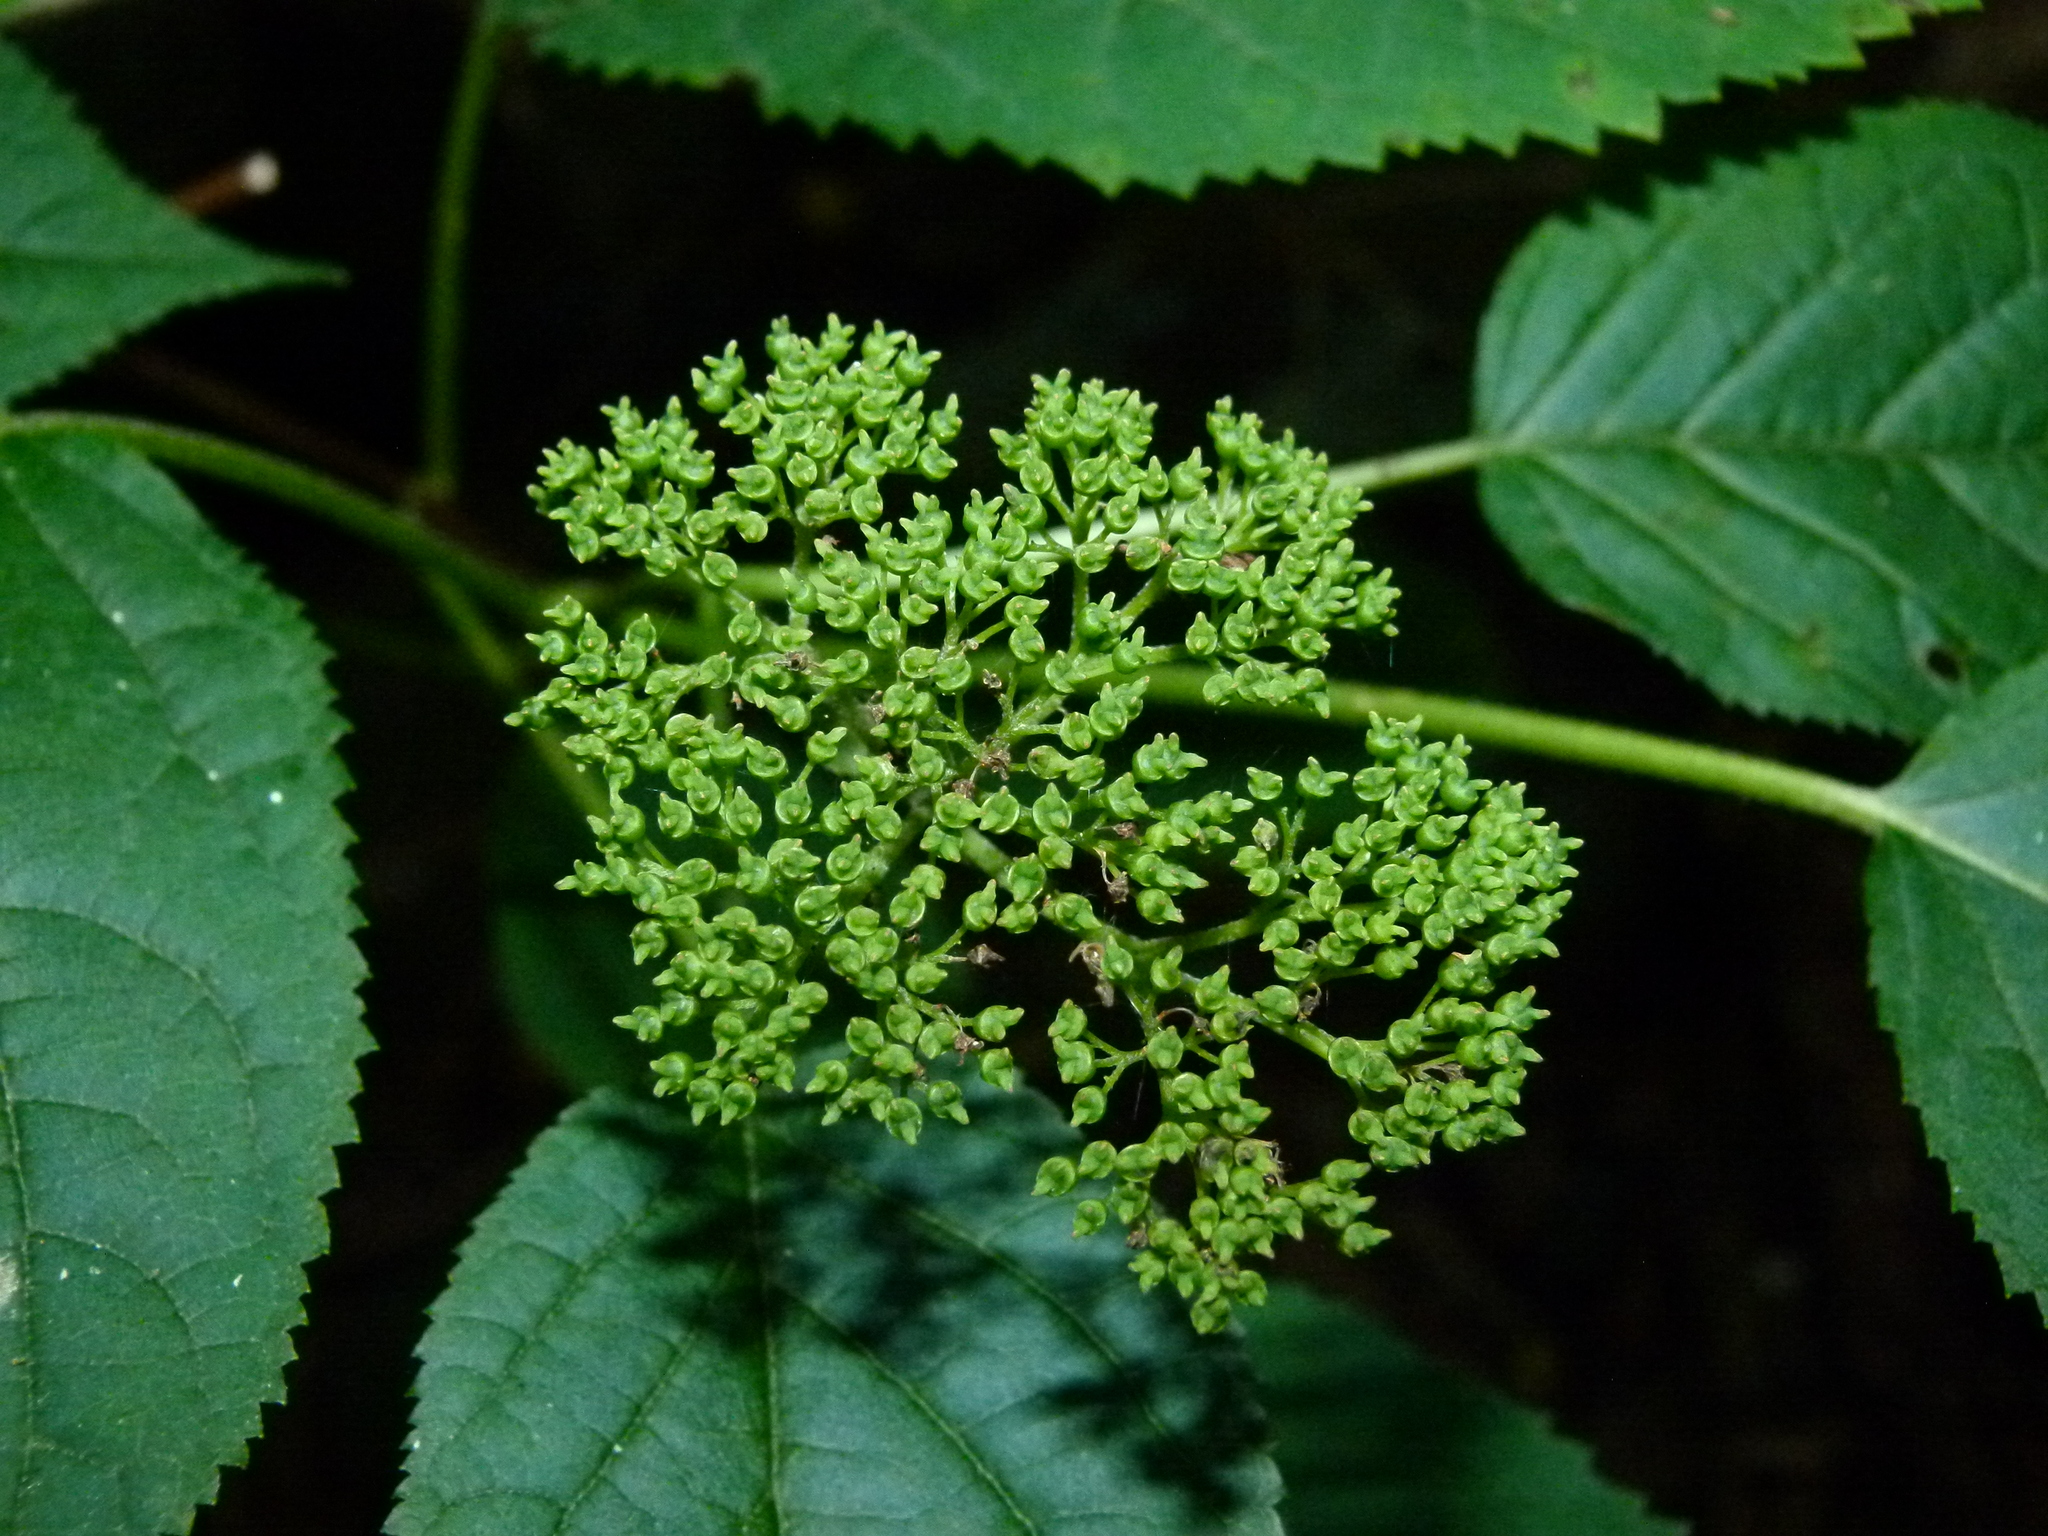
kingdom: Plantae
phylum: Tracheophyta
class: Magnoliopsida
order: Cornales
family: Hydrangeaceae
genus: Hydrangea
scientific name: Hydrangea arborescens
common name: Sevenbark
